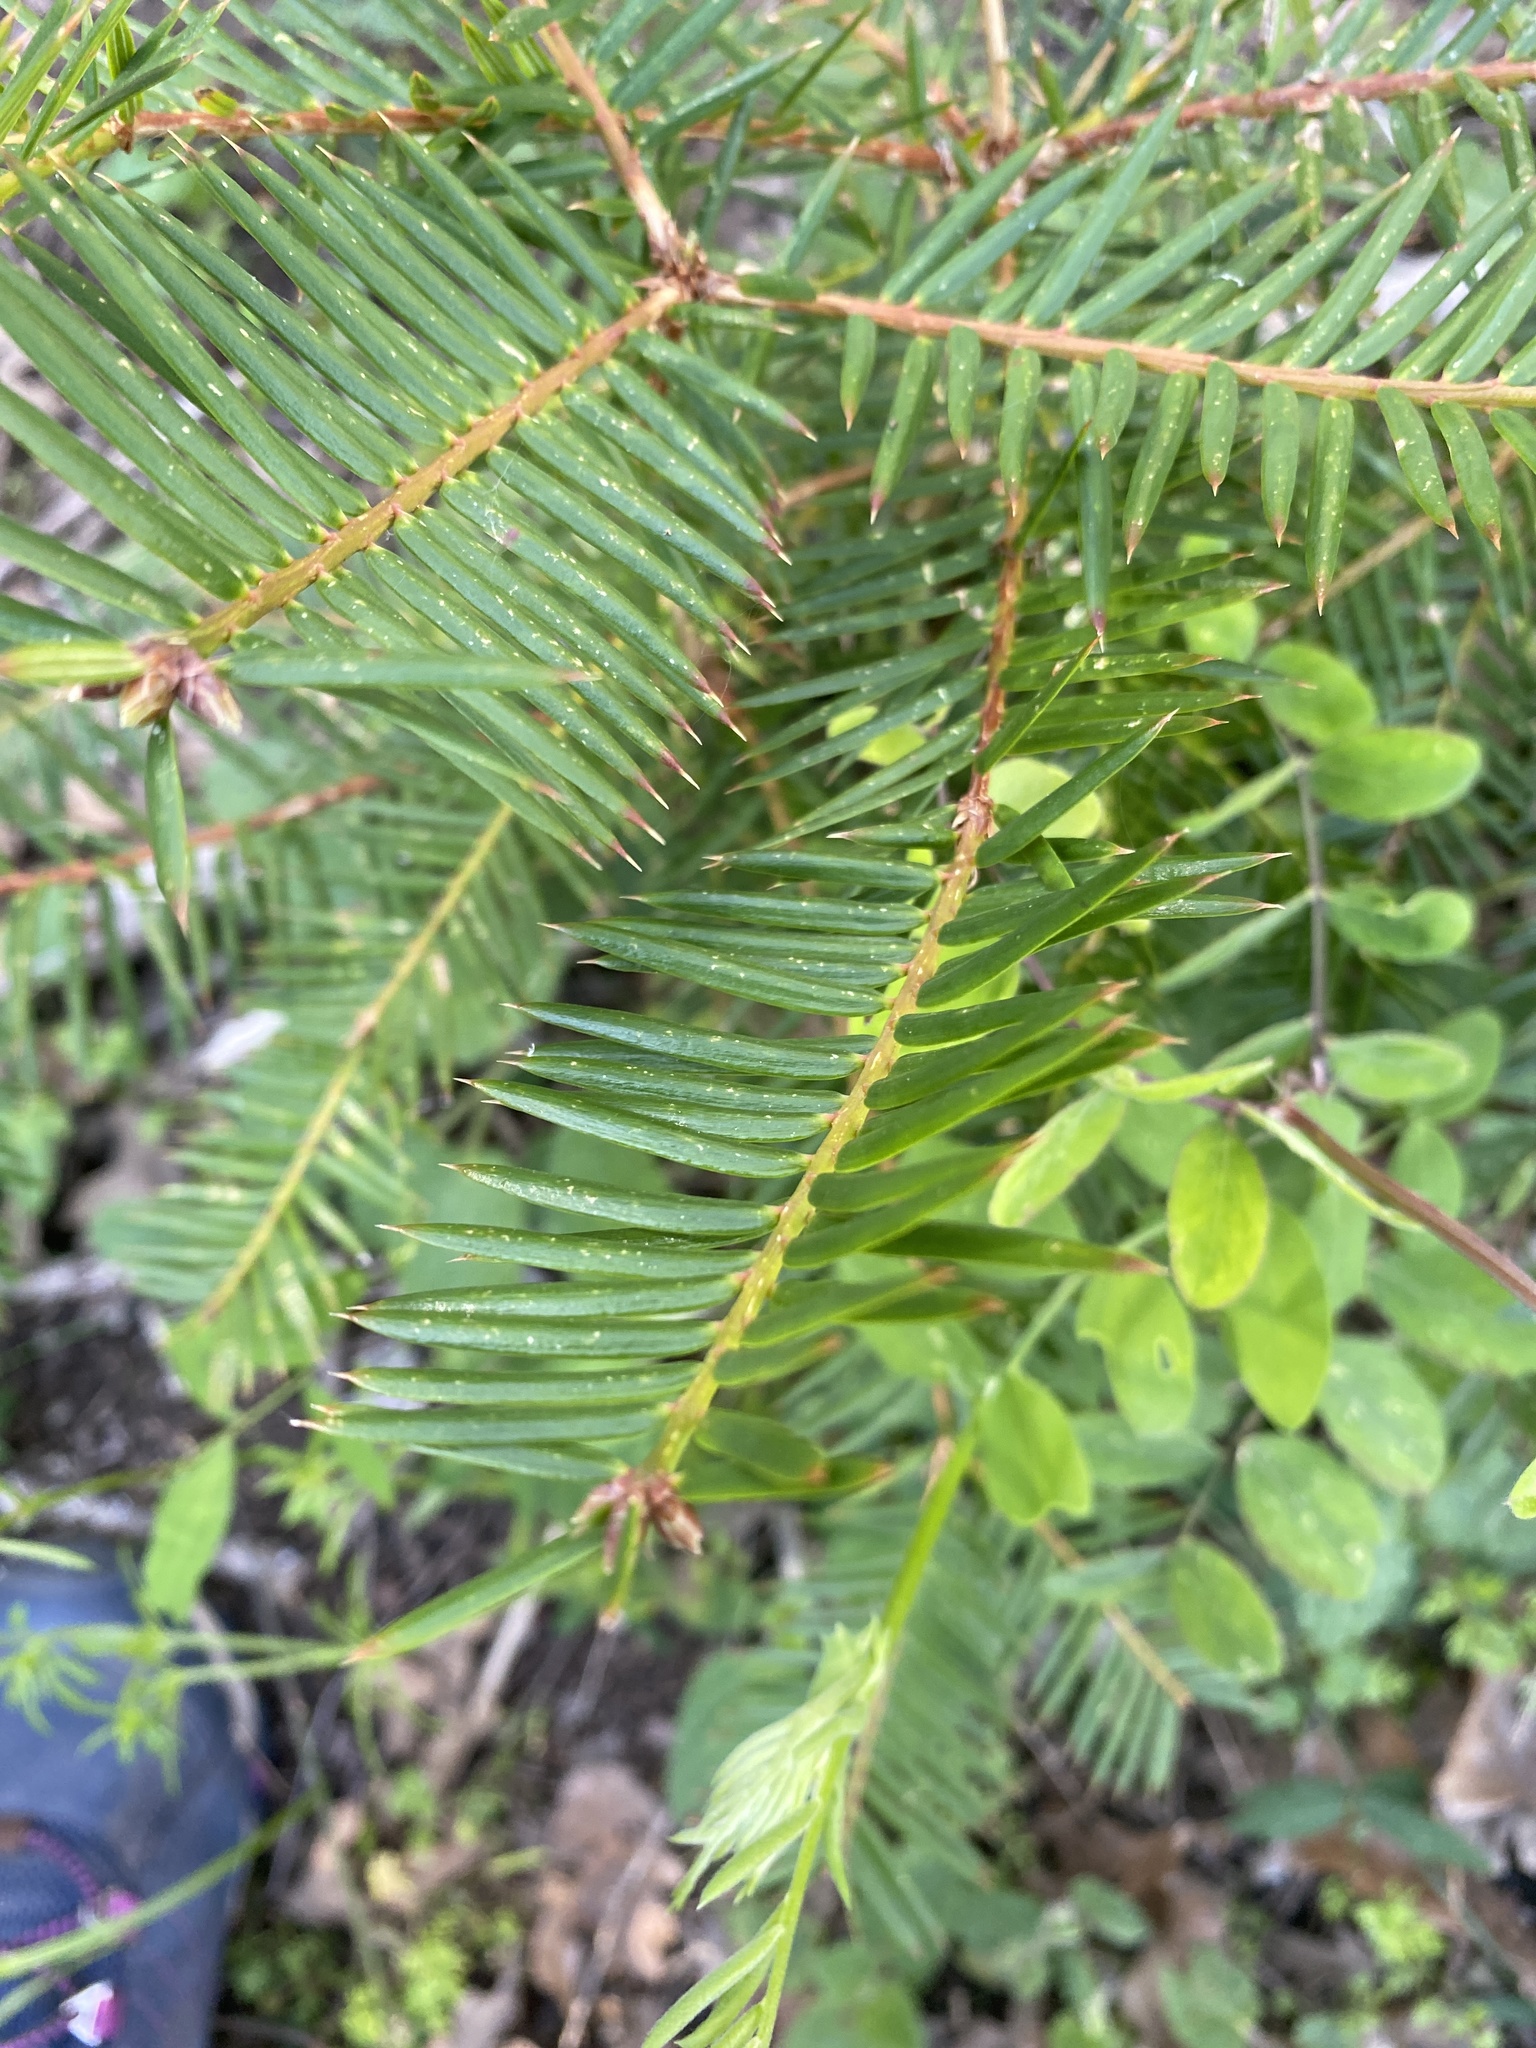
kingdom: Plantae
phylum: Tracheophyta
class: Pinopsida
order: Pinales
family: Taxaceae
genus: Torreya
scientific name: Torreya californica
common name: California torreya
